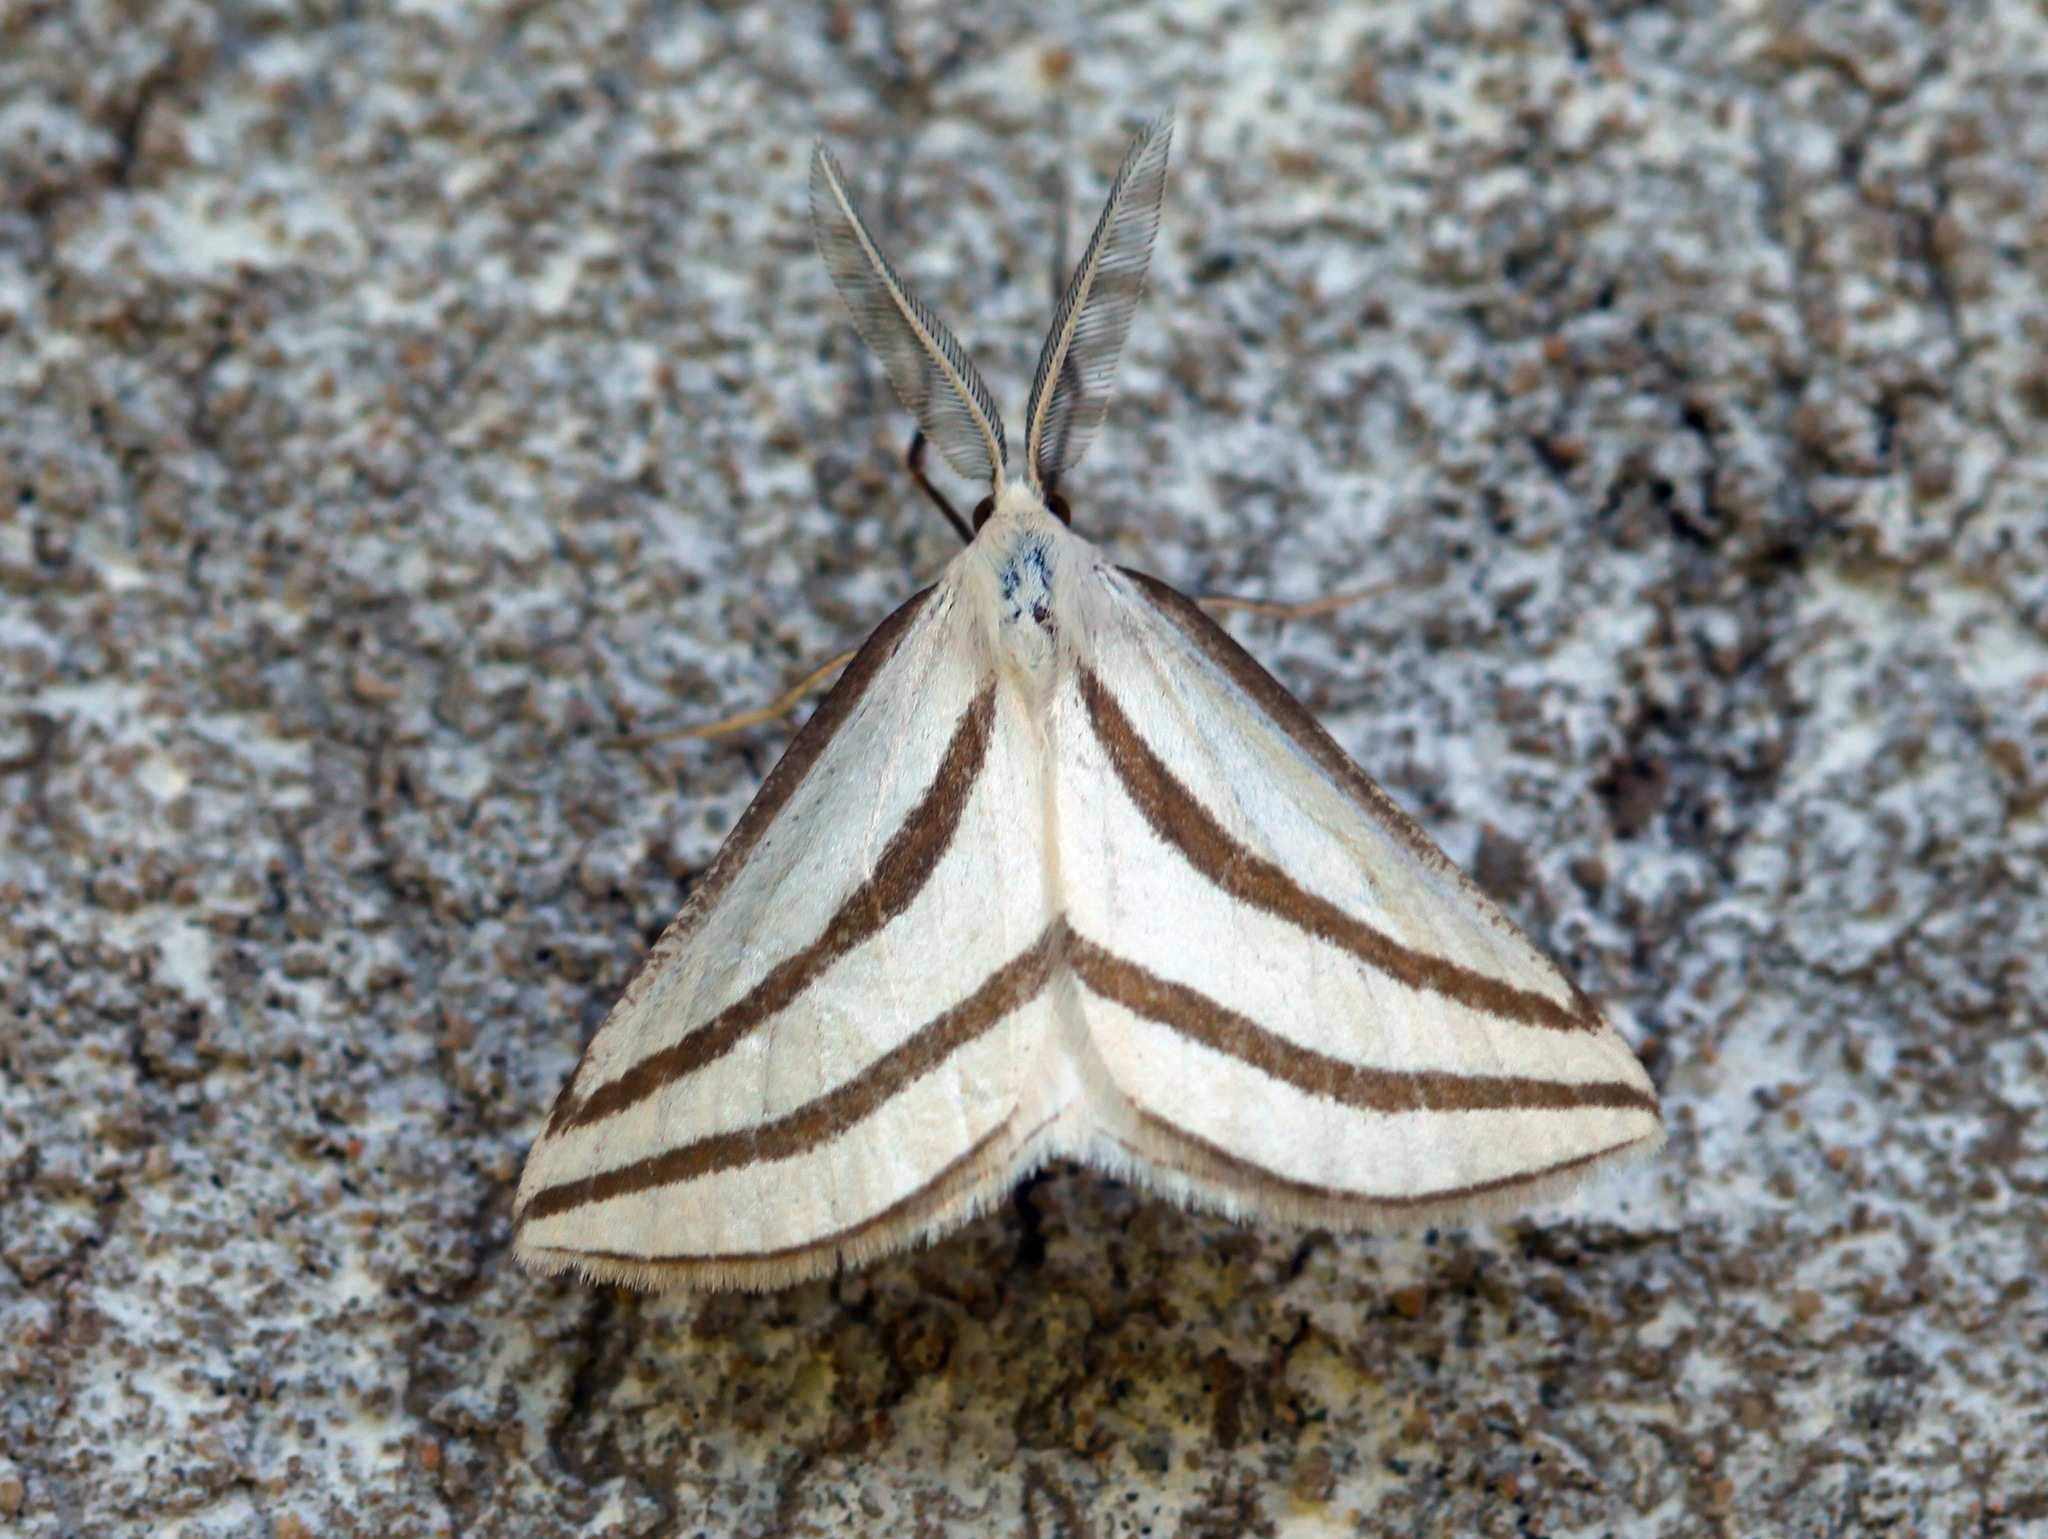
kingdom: Animalia
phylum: Arthropoda
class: Insecta
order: Lepidoptera
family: Geometridae
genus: Megaspilates
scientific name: Megaspilates mundataria
